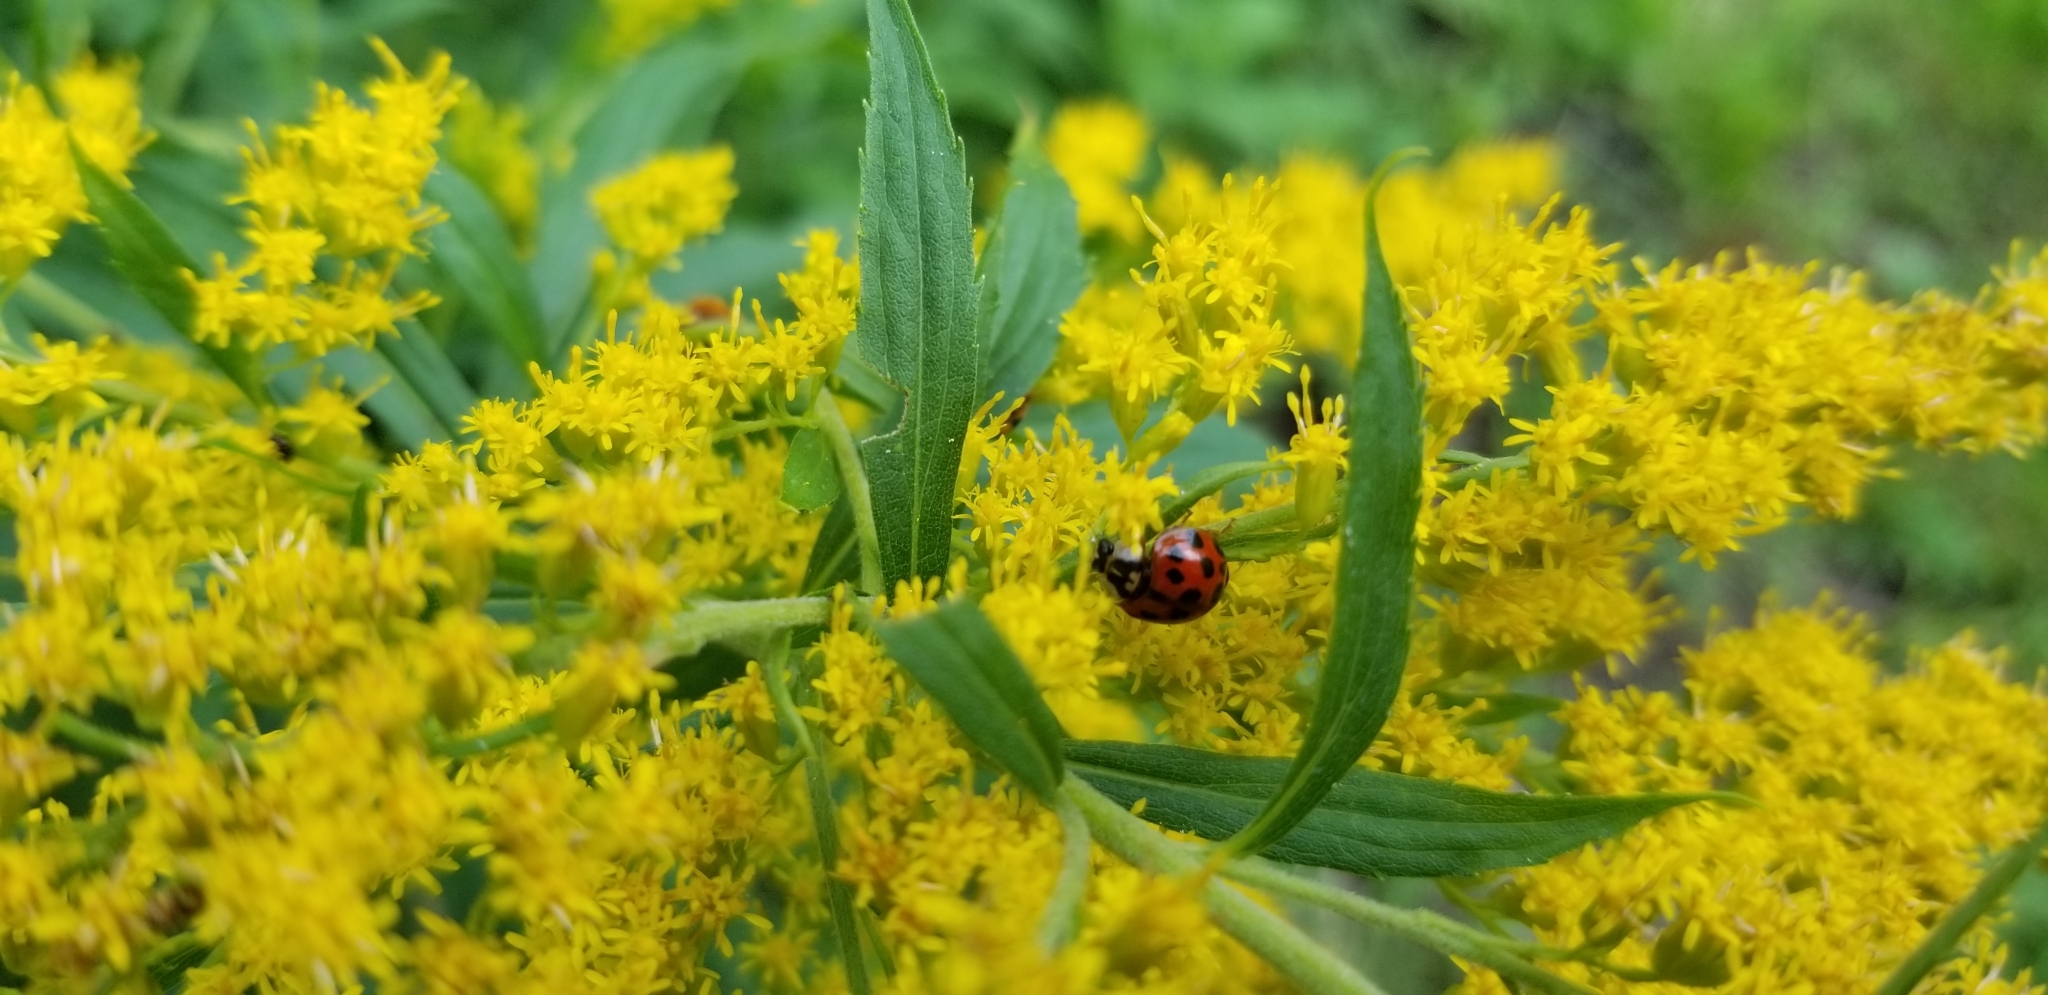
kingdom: Animalia
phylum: Arthropoda
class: Insecta
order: Coleoptera
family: Coccinellidae
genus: Harmonia
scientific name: Harmonia axyridis
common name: Harlequin ladybird
